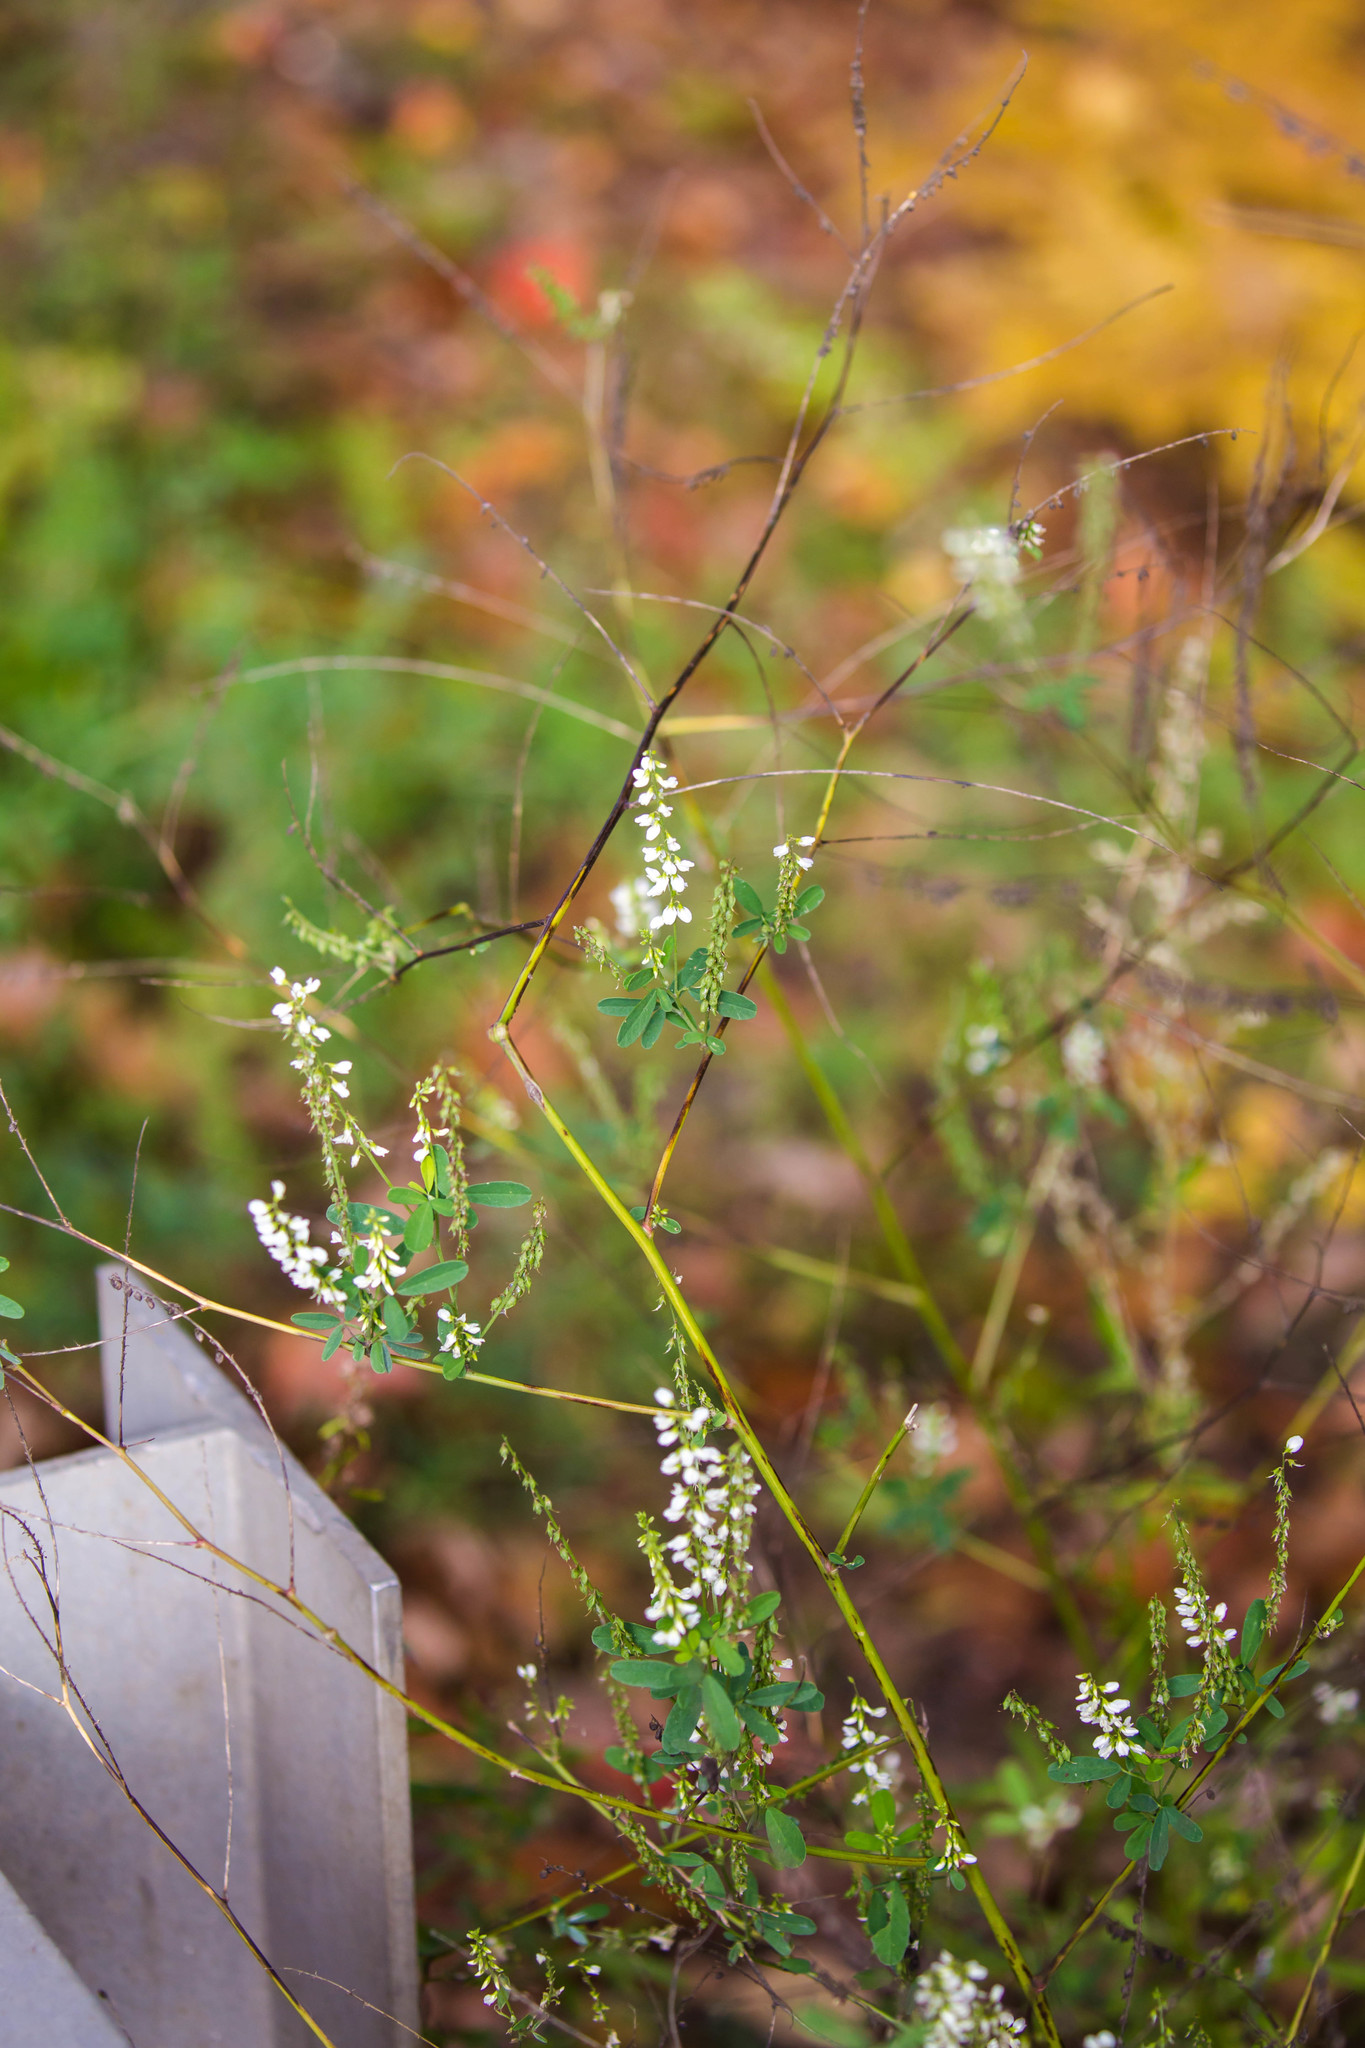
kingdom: Plantae
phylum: Tracheophyta
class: Magnoliopsida
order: Fabales
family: Fabaceae
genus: Melilotus
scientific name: Melilotus albus
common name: White melilot
